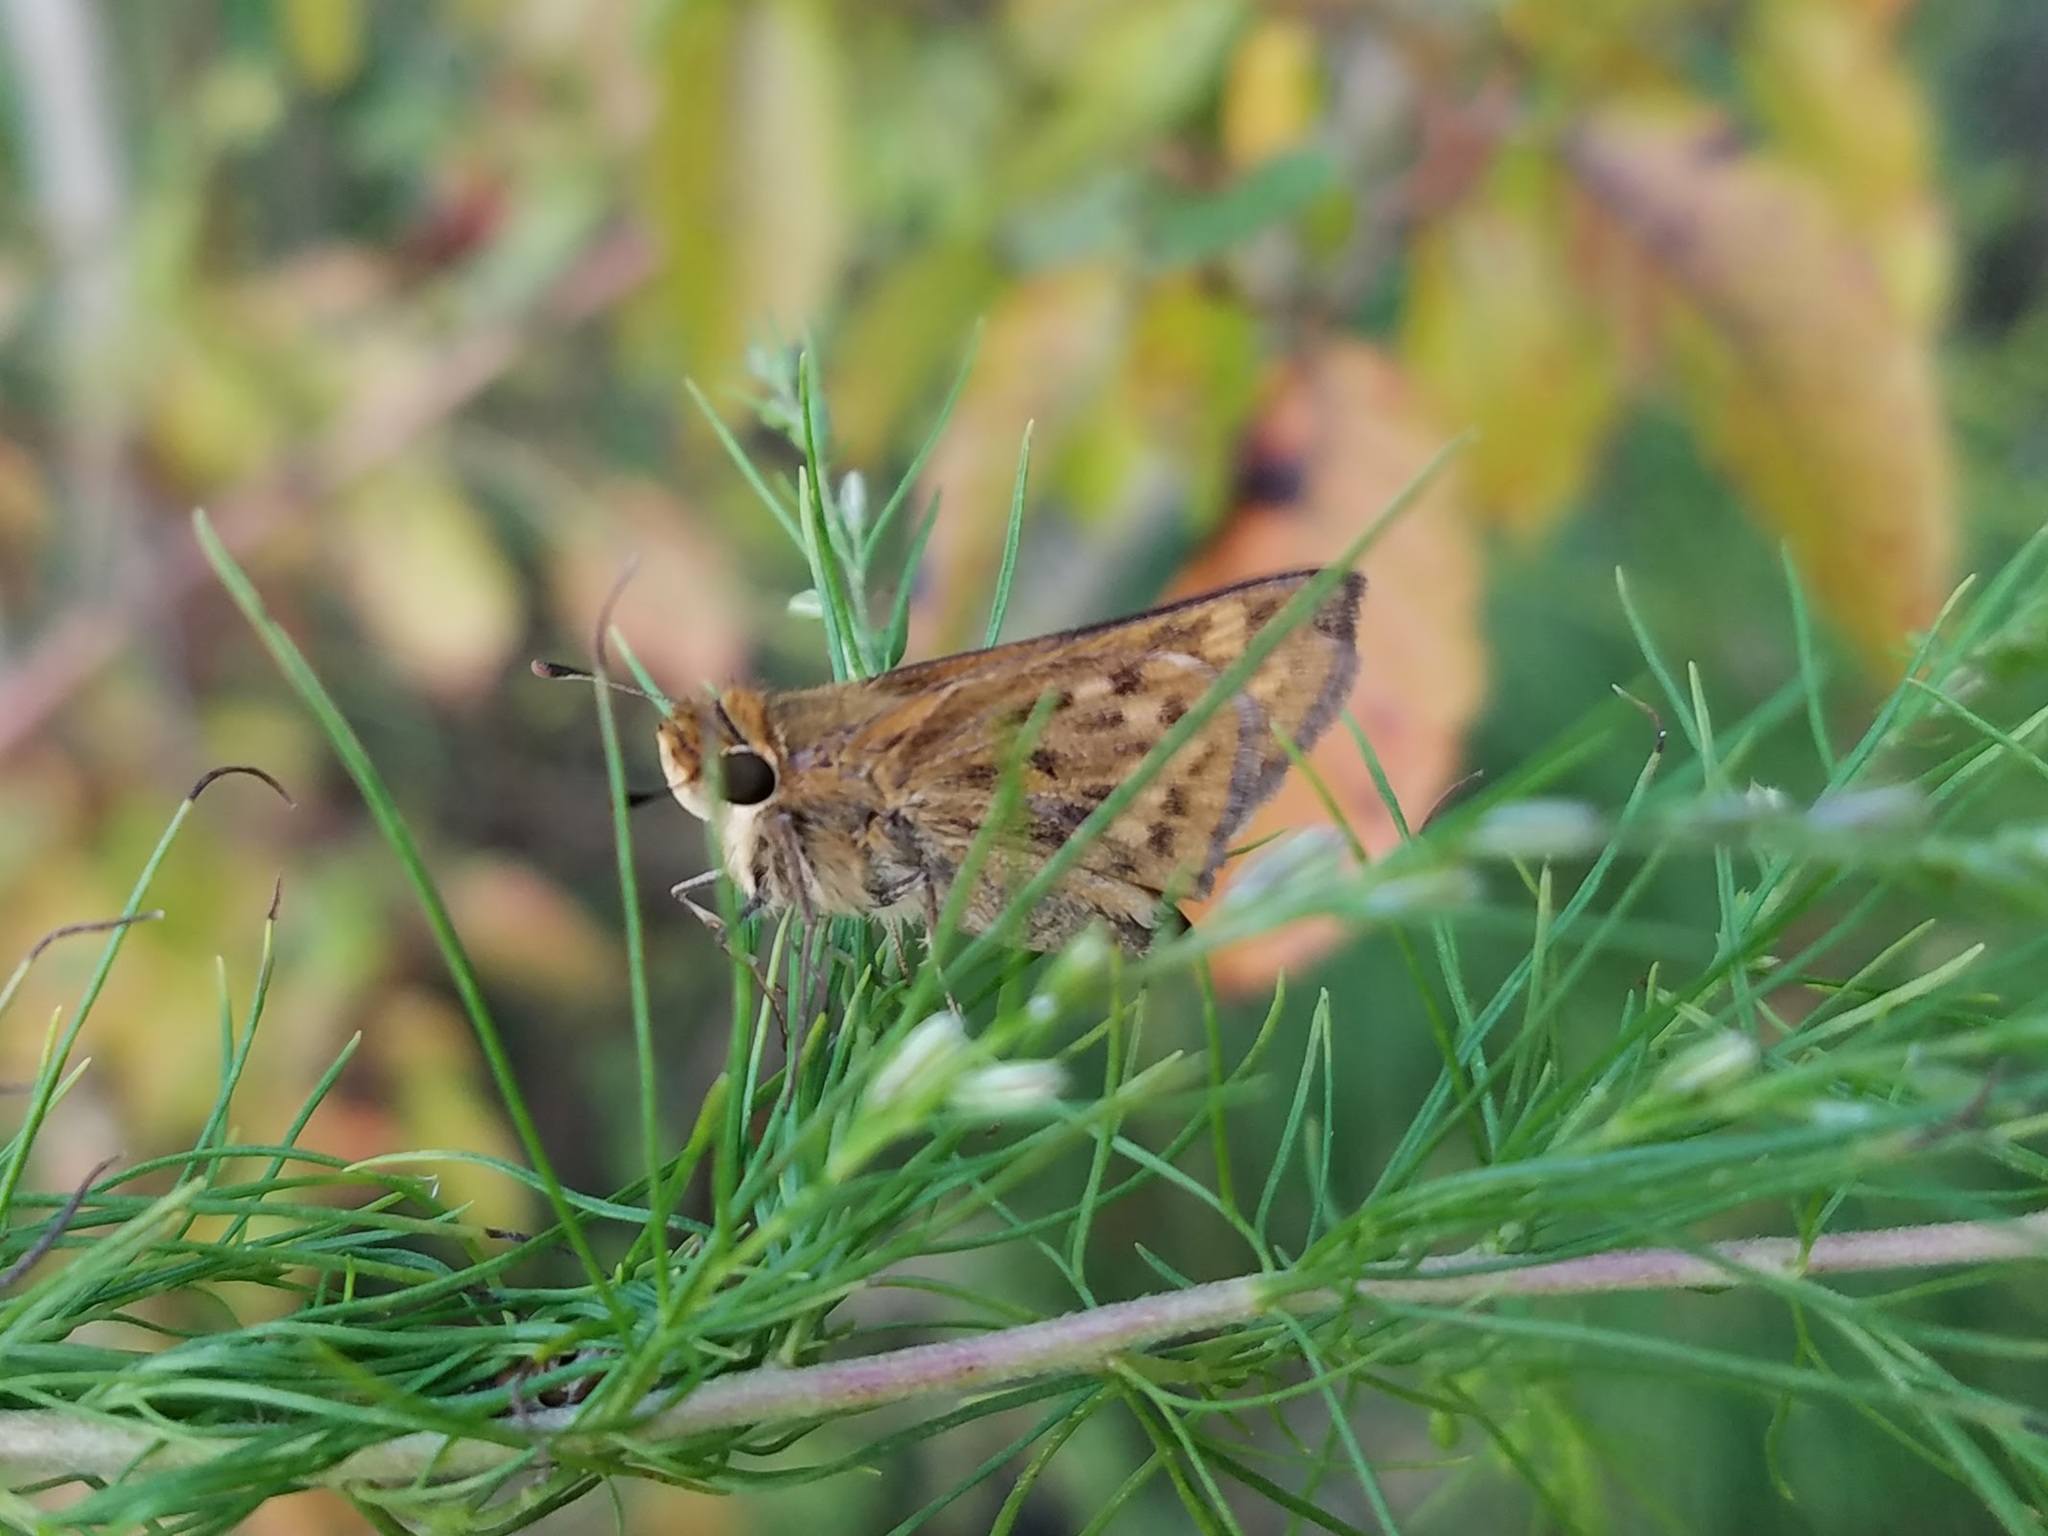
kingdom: Animalia
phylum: Arthropoda
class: Insecta
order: Lepidoptera
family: Hesperiidae
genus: Hylephila
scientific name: Hylephila phyleus
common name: Fiery skipper
